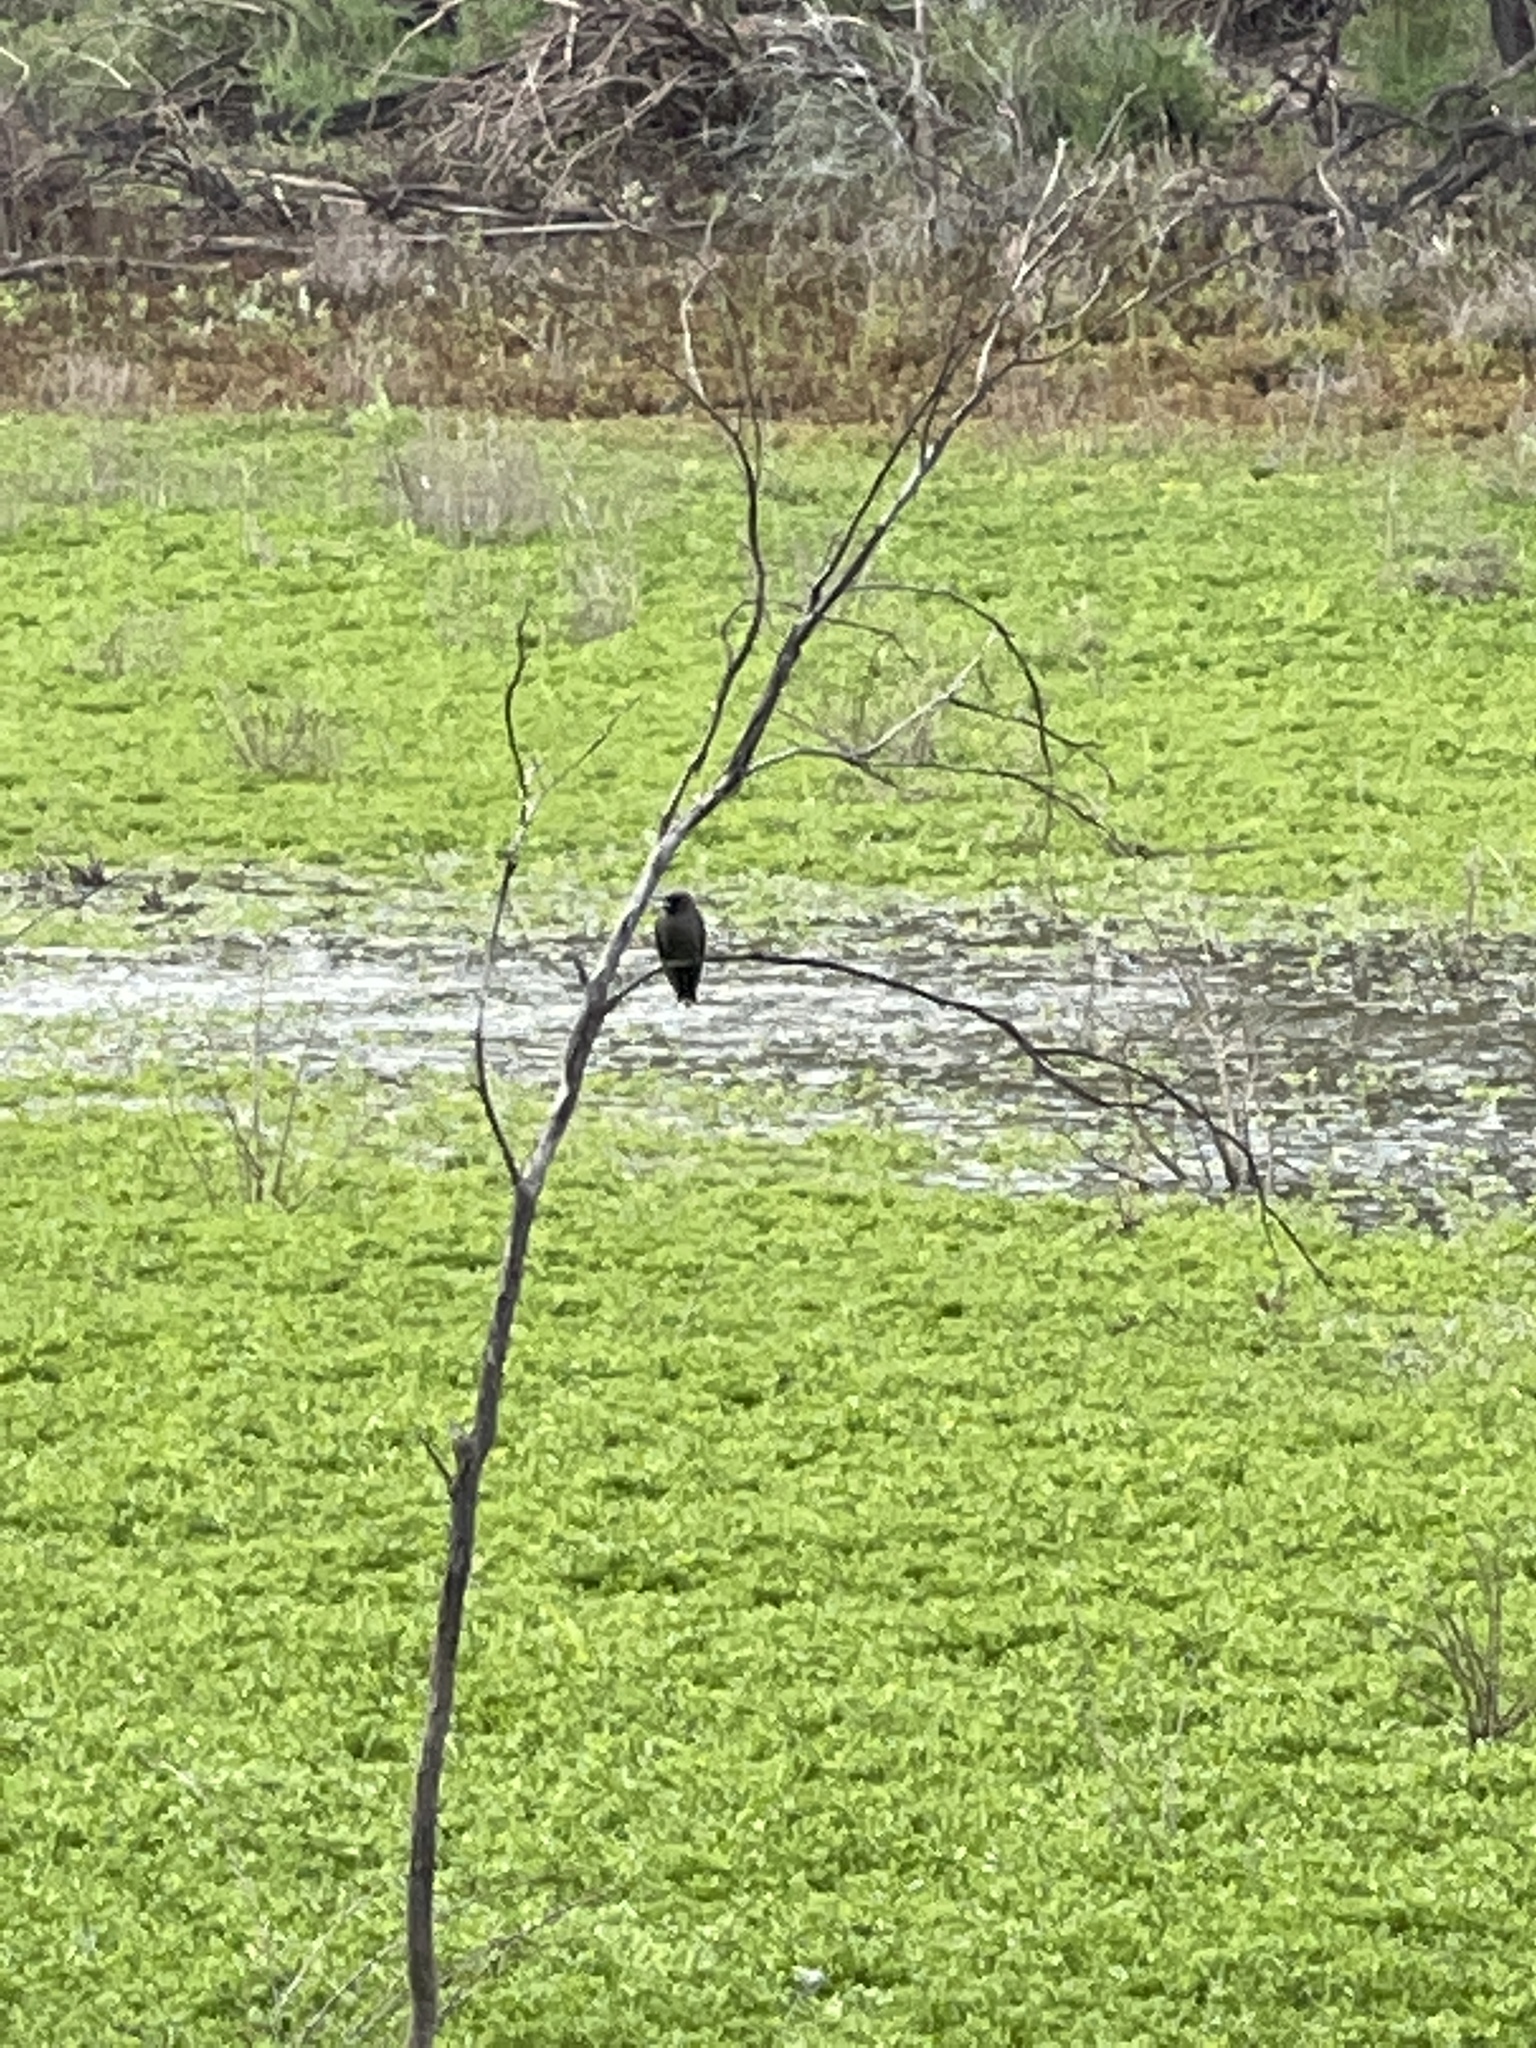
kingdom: Animalia
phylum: Chordata
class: Aves
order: Passeriformes
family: Artamidae
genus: Artamus
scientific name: Artamus cyanopterus
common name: Dusky woodswallow
